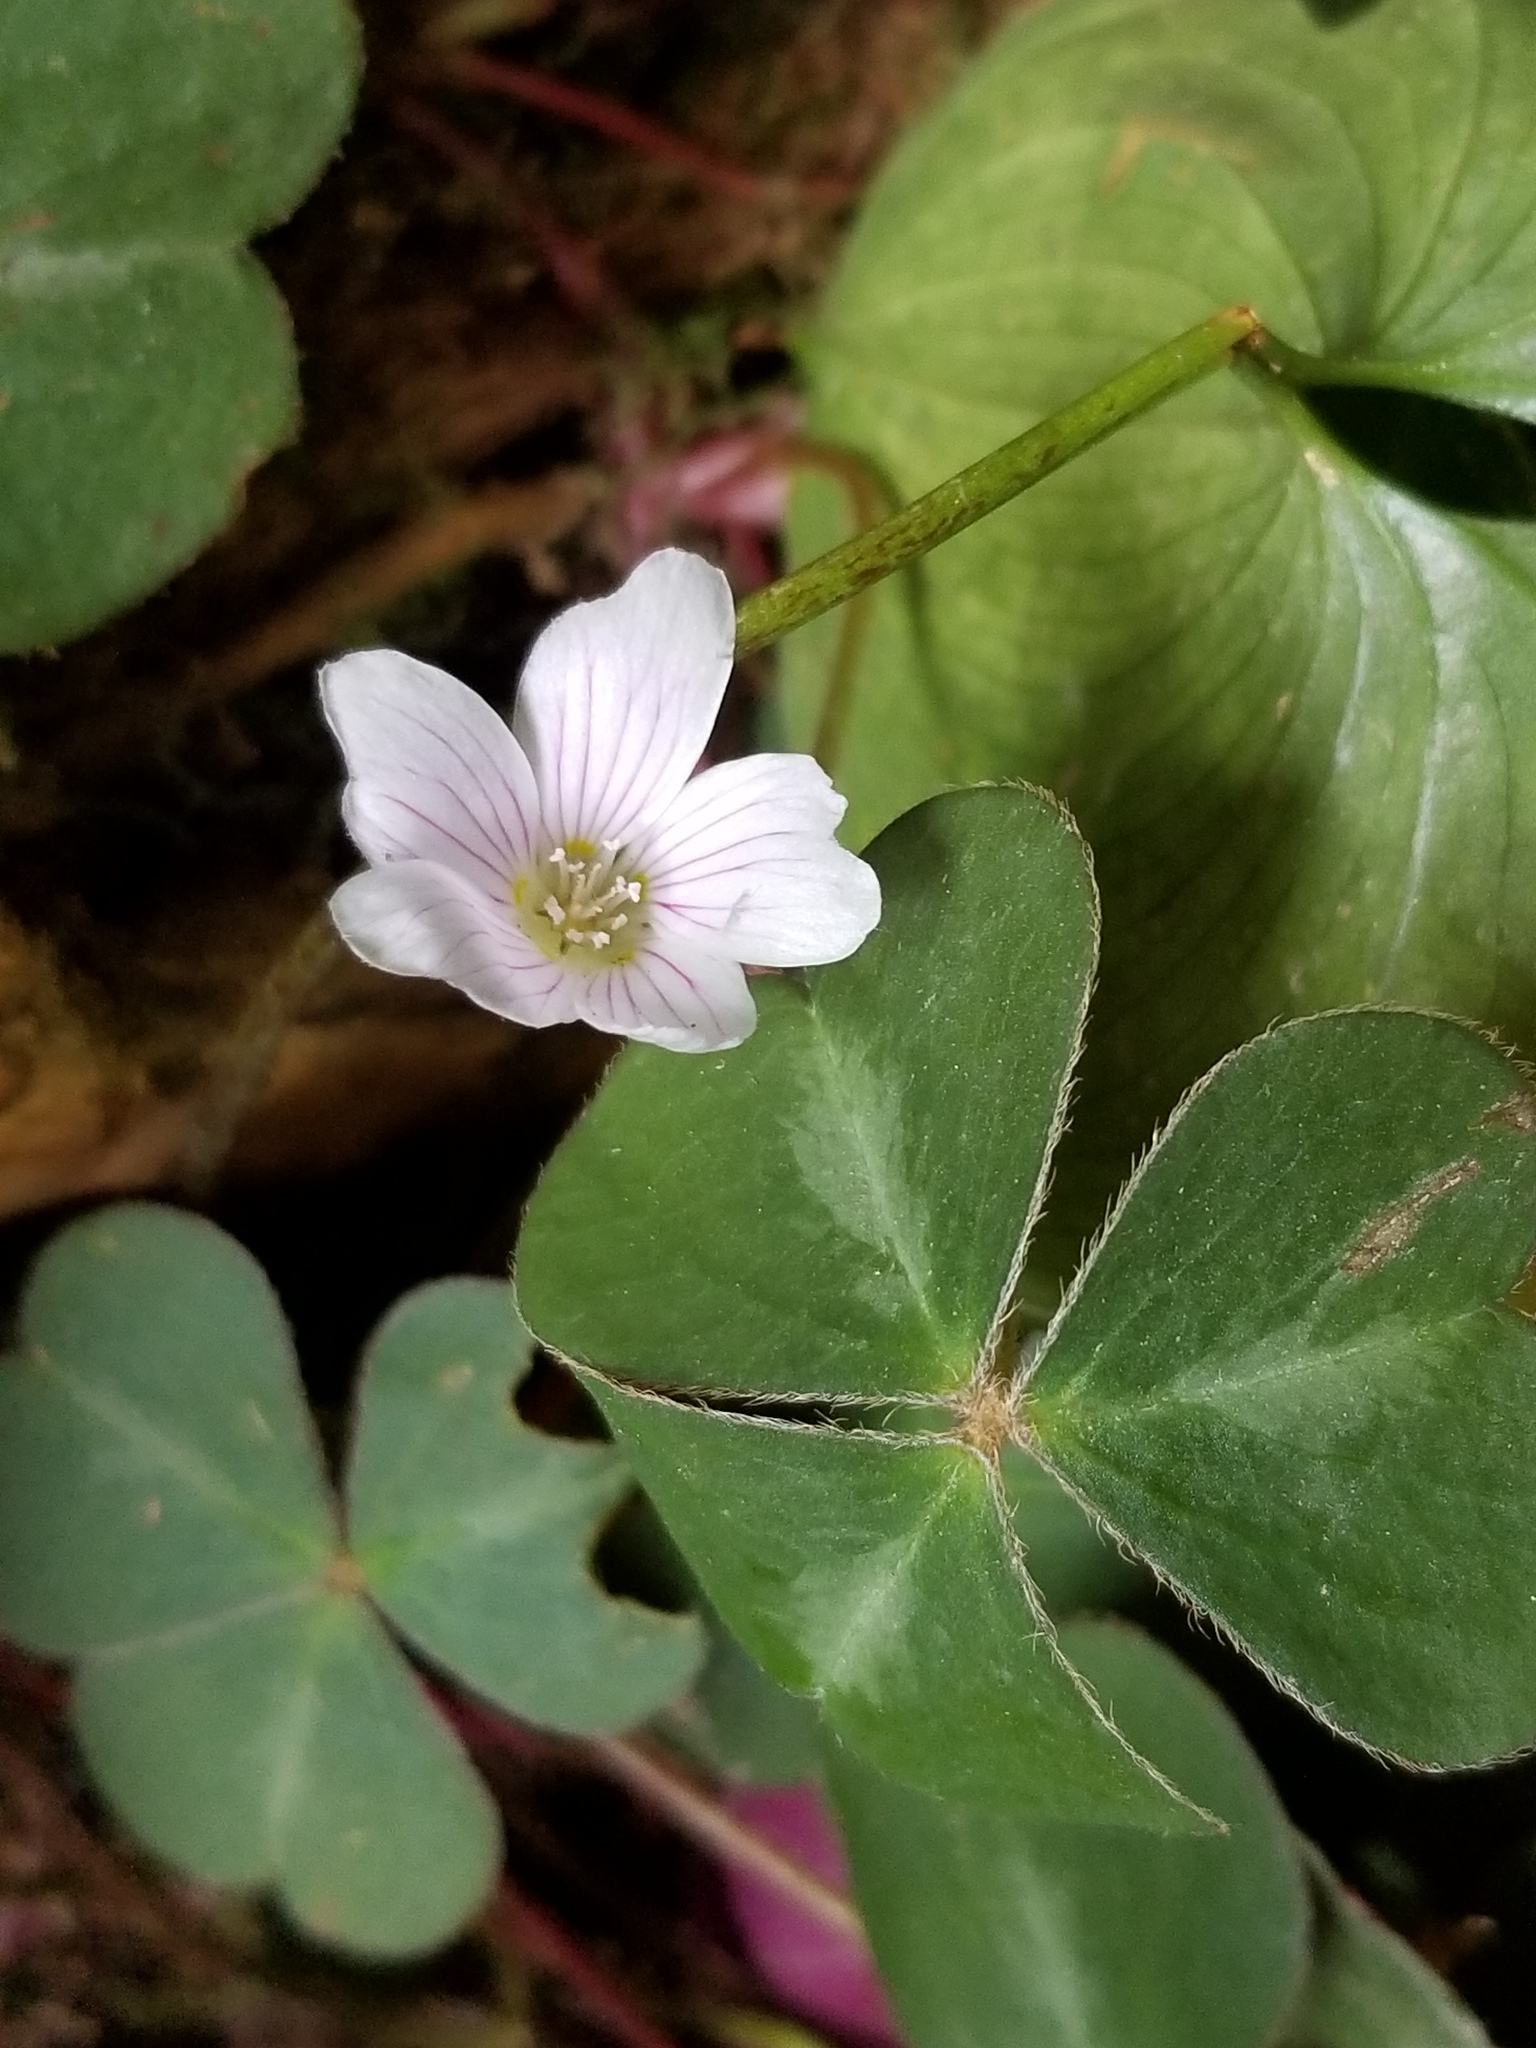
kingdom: Plantae
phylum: Tracheophyta
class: Magnoliopsida
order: Oxalidales
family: Oxalidaceae
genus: Oxalis
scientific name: Oxalis oregana
